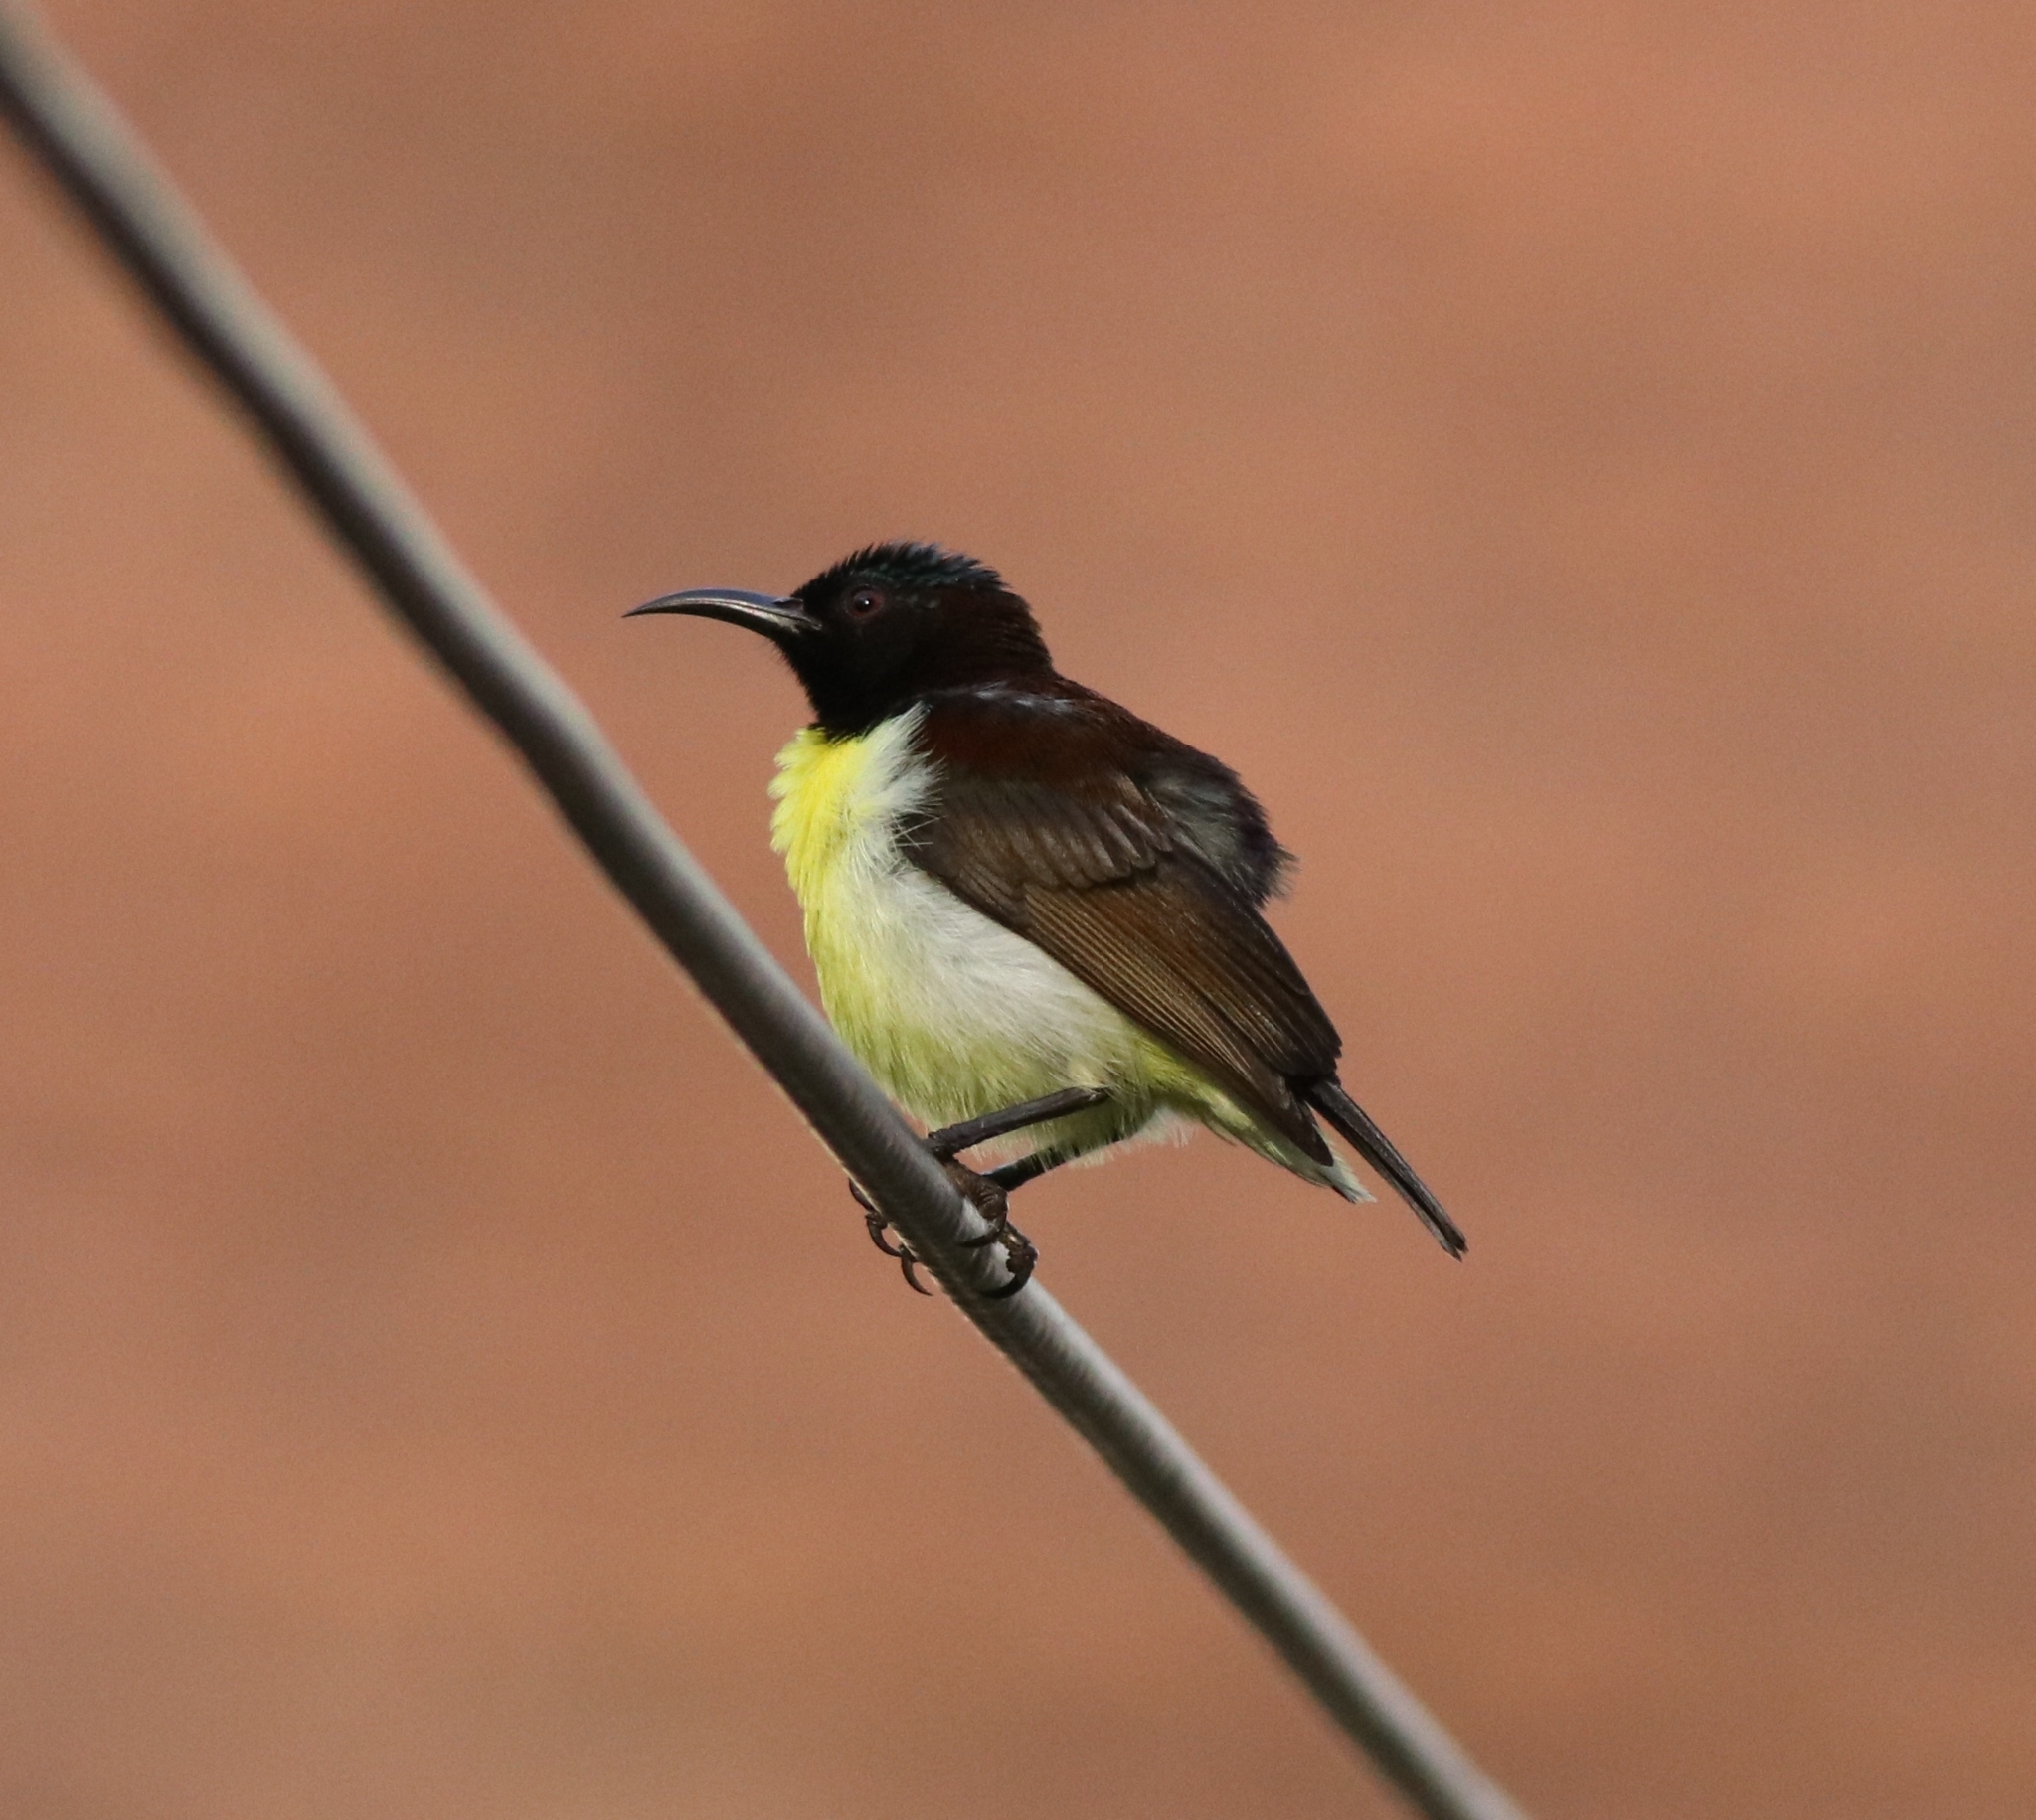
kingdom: Animalia
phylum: Chordata
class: Aves
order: Passeriformes
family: Nectariniidae
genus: Leptocoma
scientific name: Leptocoma zeylonica
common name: Purple-rumped sunbird
